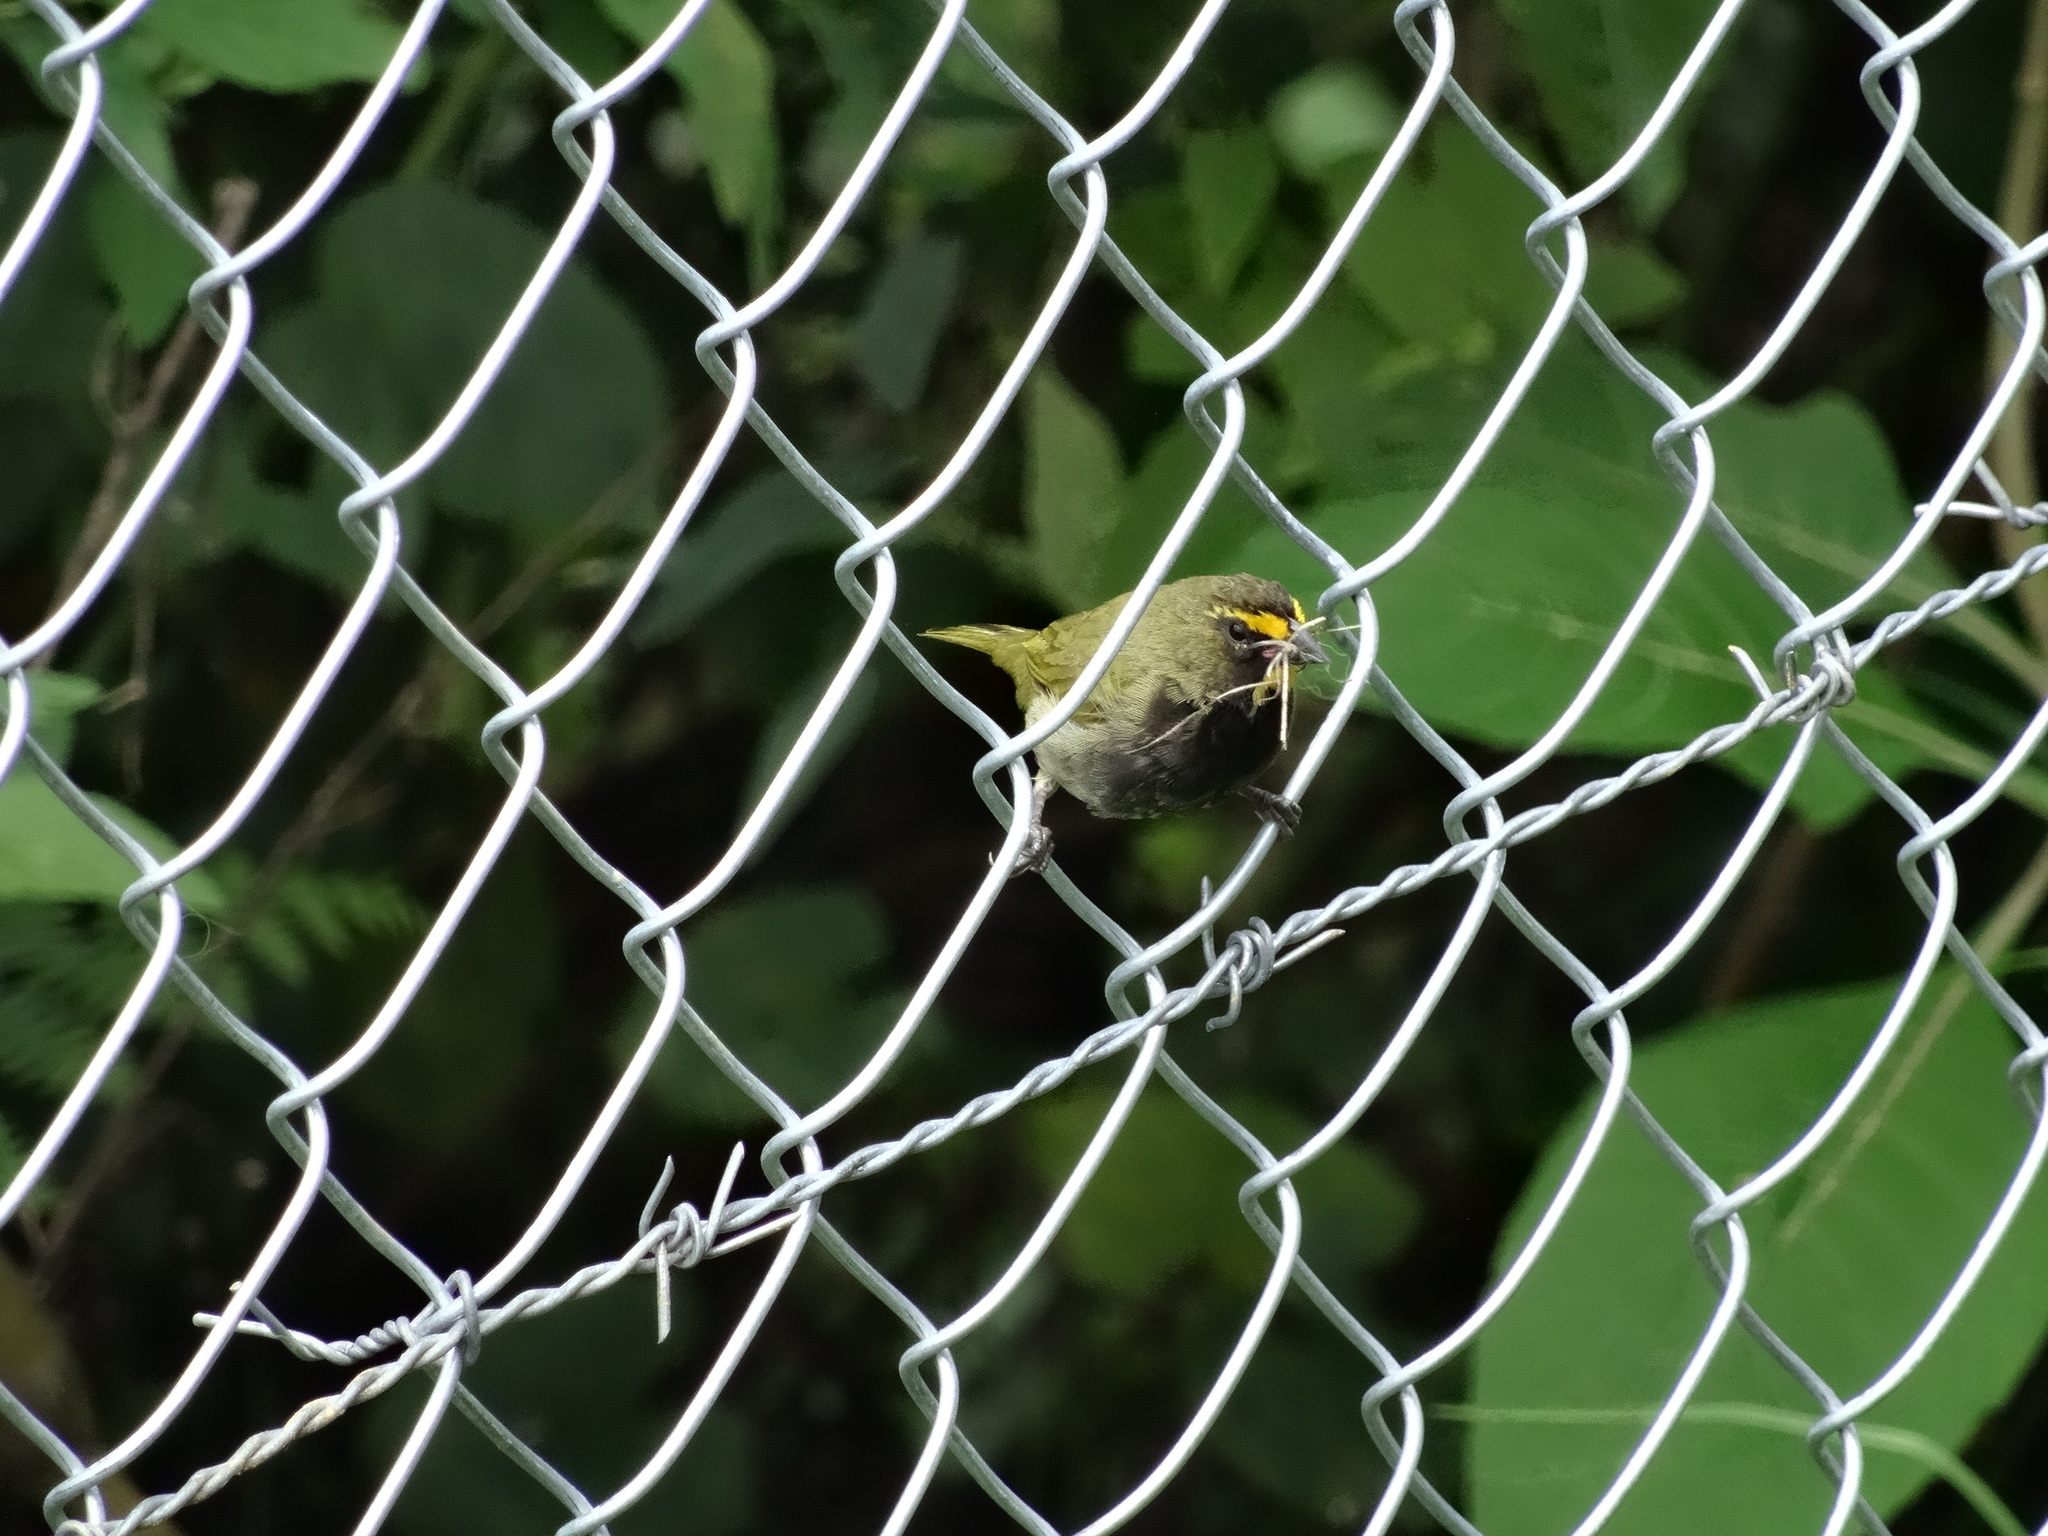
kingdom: Animalia
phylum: Chordata
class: Aves
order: Passeriformes
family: Thraupidae
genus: Tiaris
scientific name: Tiaris olivaceus
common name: Yellow-faced grassquit
